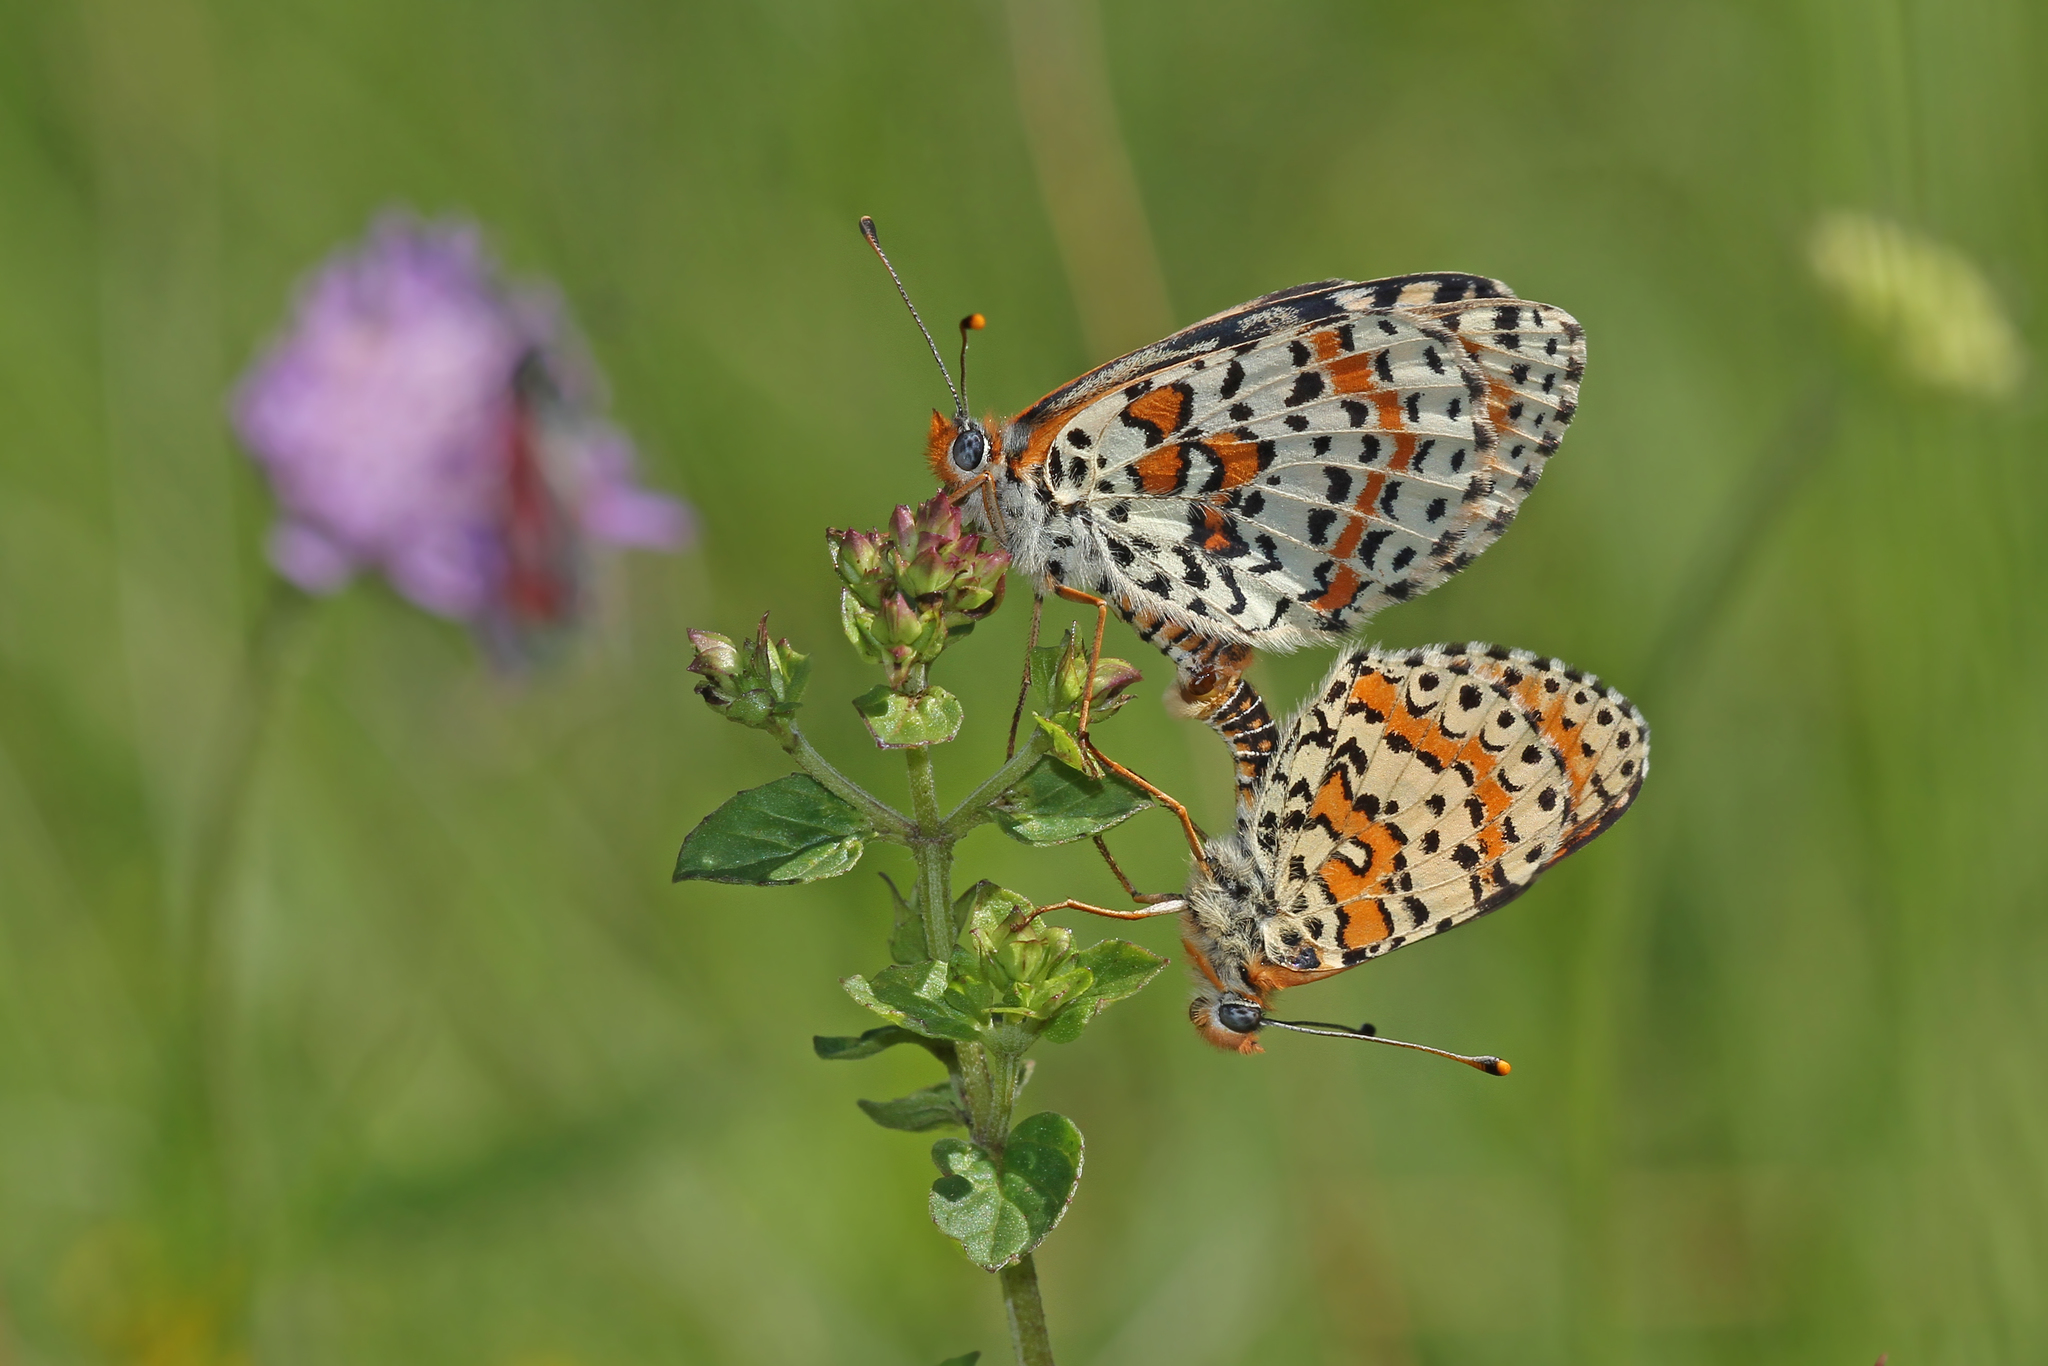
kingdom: Animalia
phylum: Arthropoda
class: Insecta
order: Lepidoptera
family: Nymphalidae
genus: Melitaea
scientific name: Melitaea didyma
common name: Spotted fritillary
